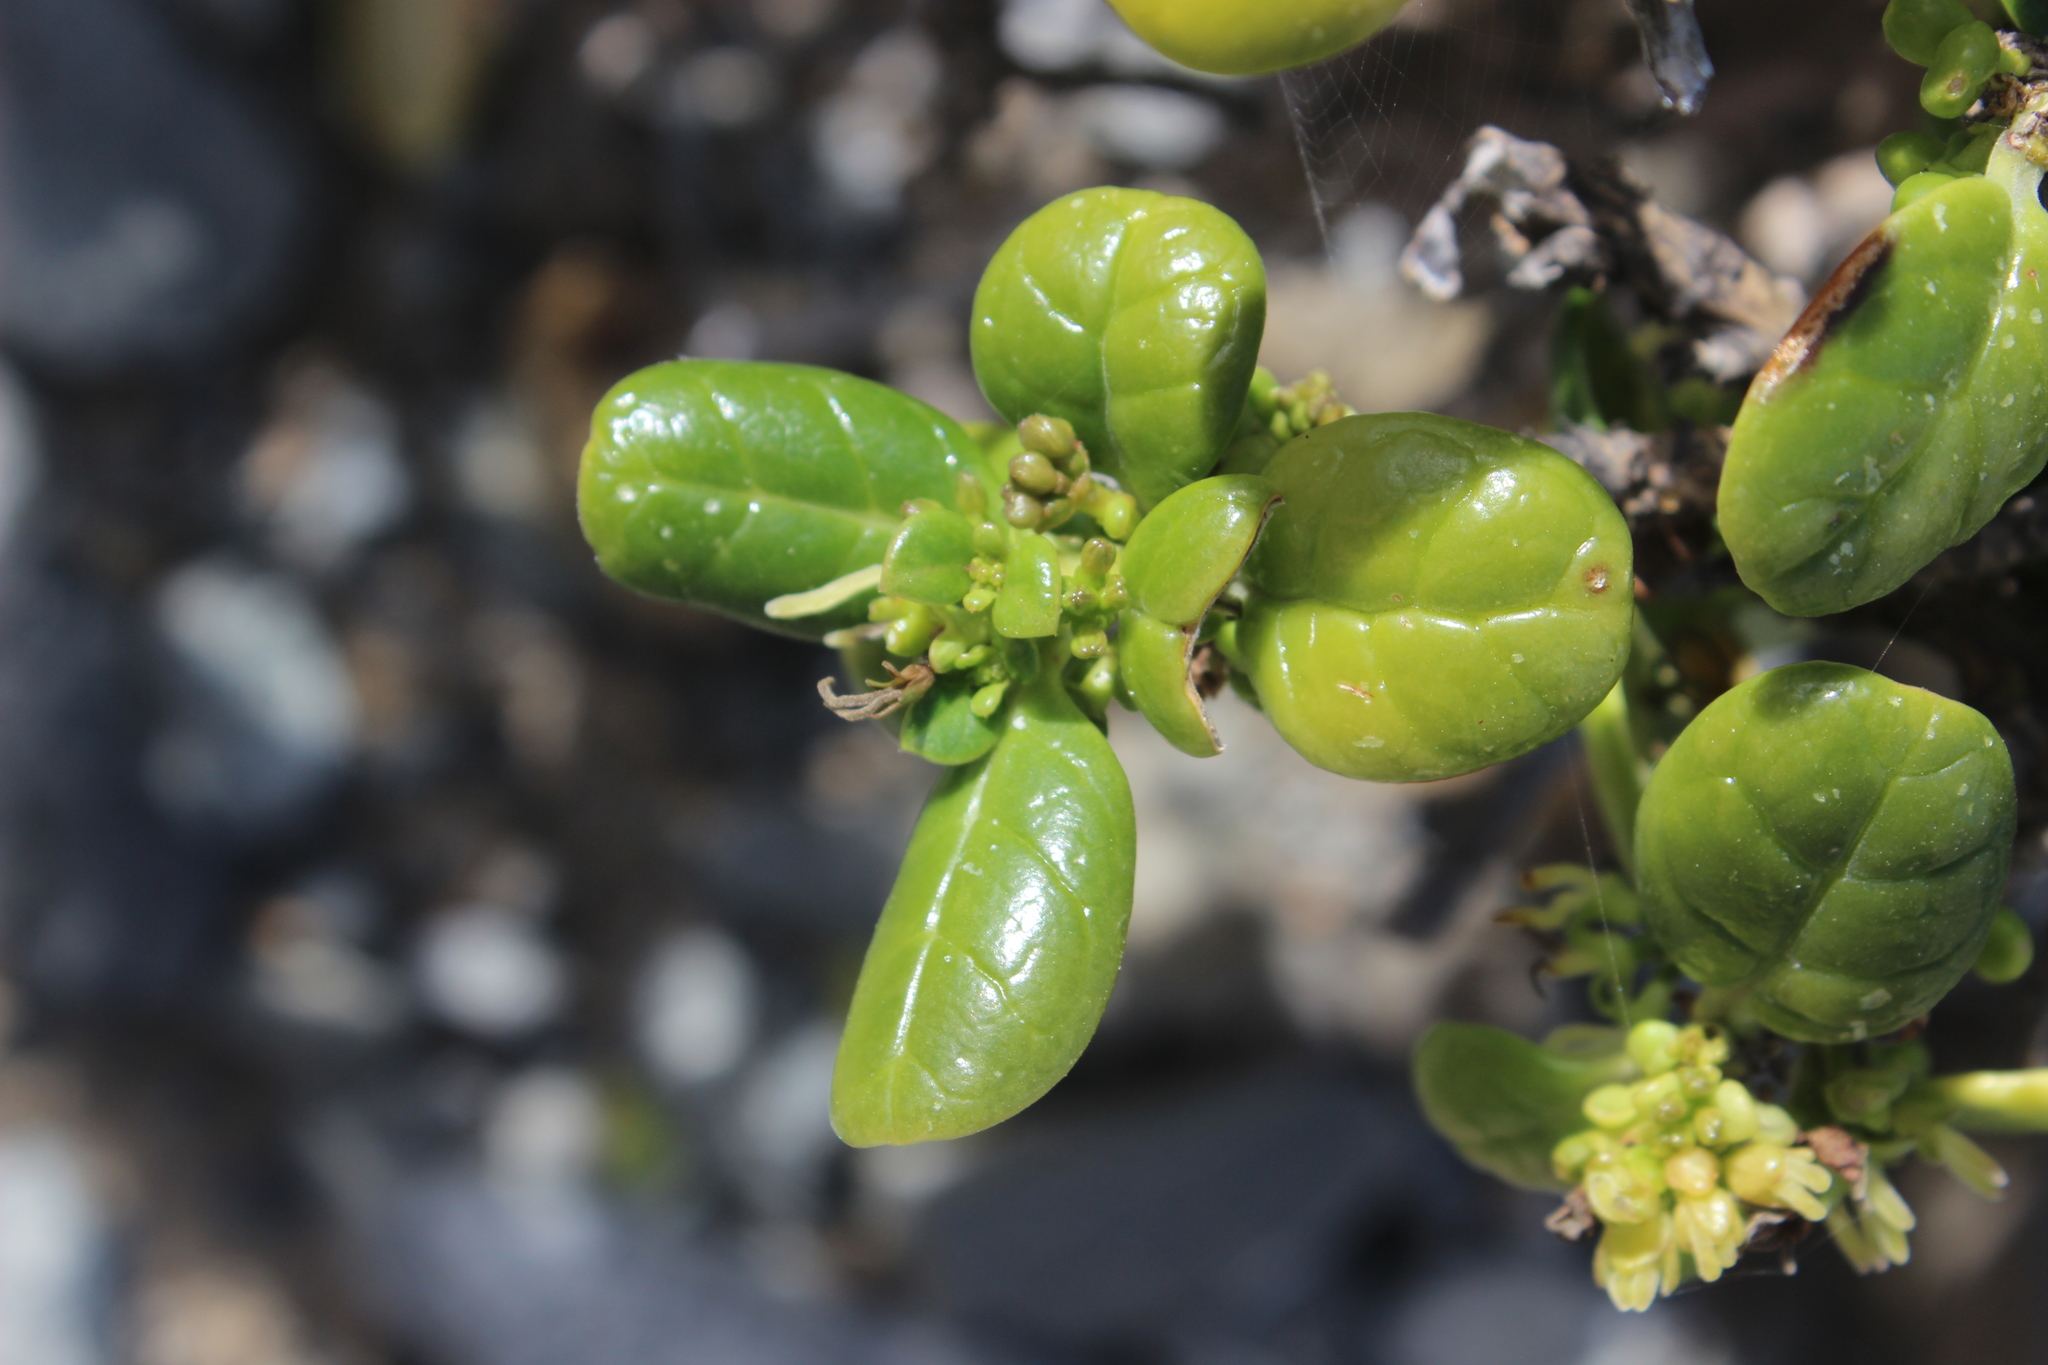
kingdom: Plantae
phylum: Tracheophyta
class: Magnoliopsida
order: Gentianales
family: Rubiaceae
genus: Coprosma
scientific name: Coprosma repens
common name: Tree bedstraw
